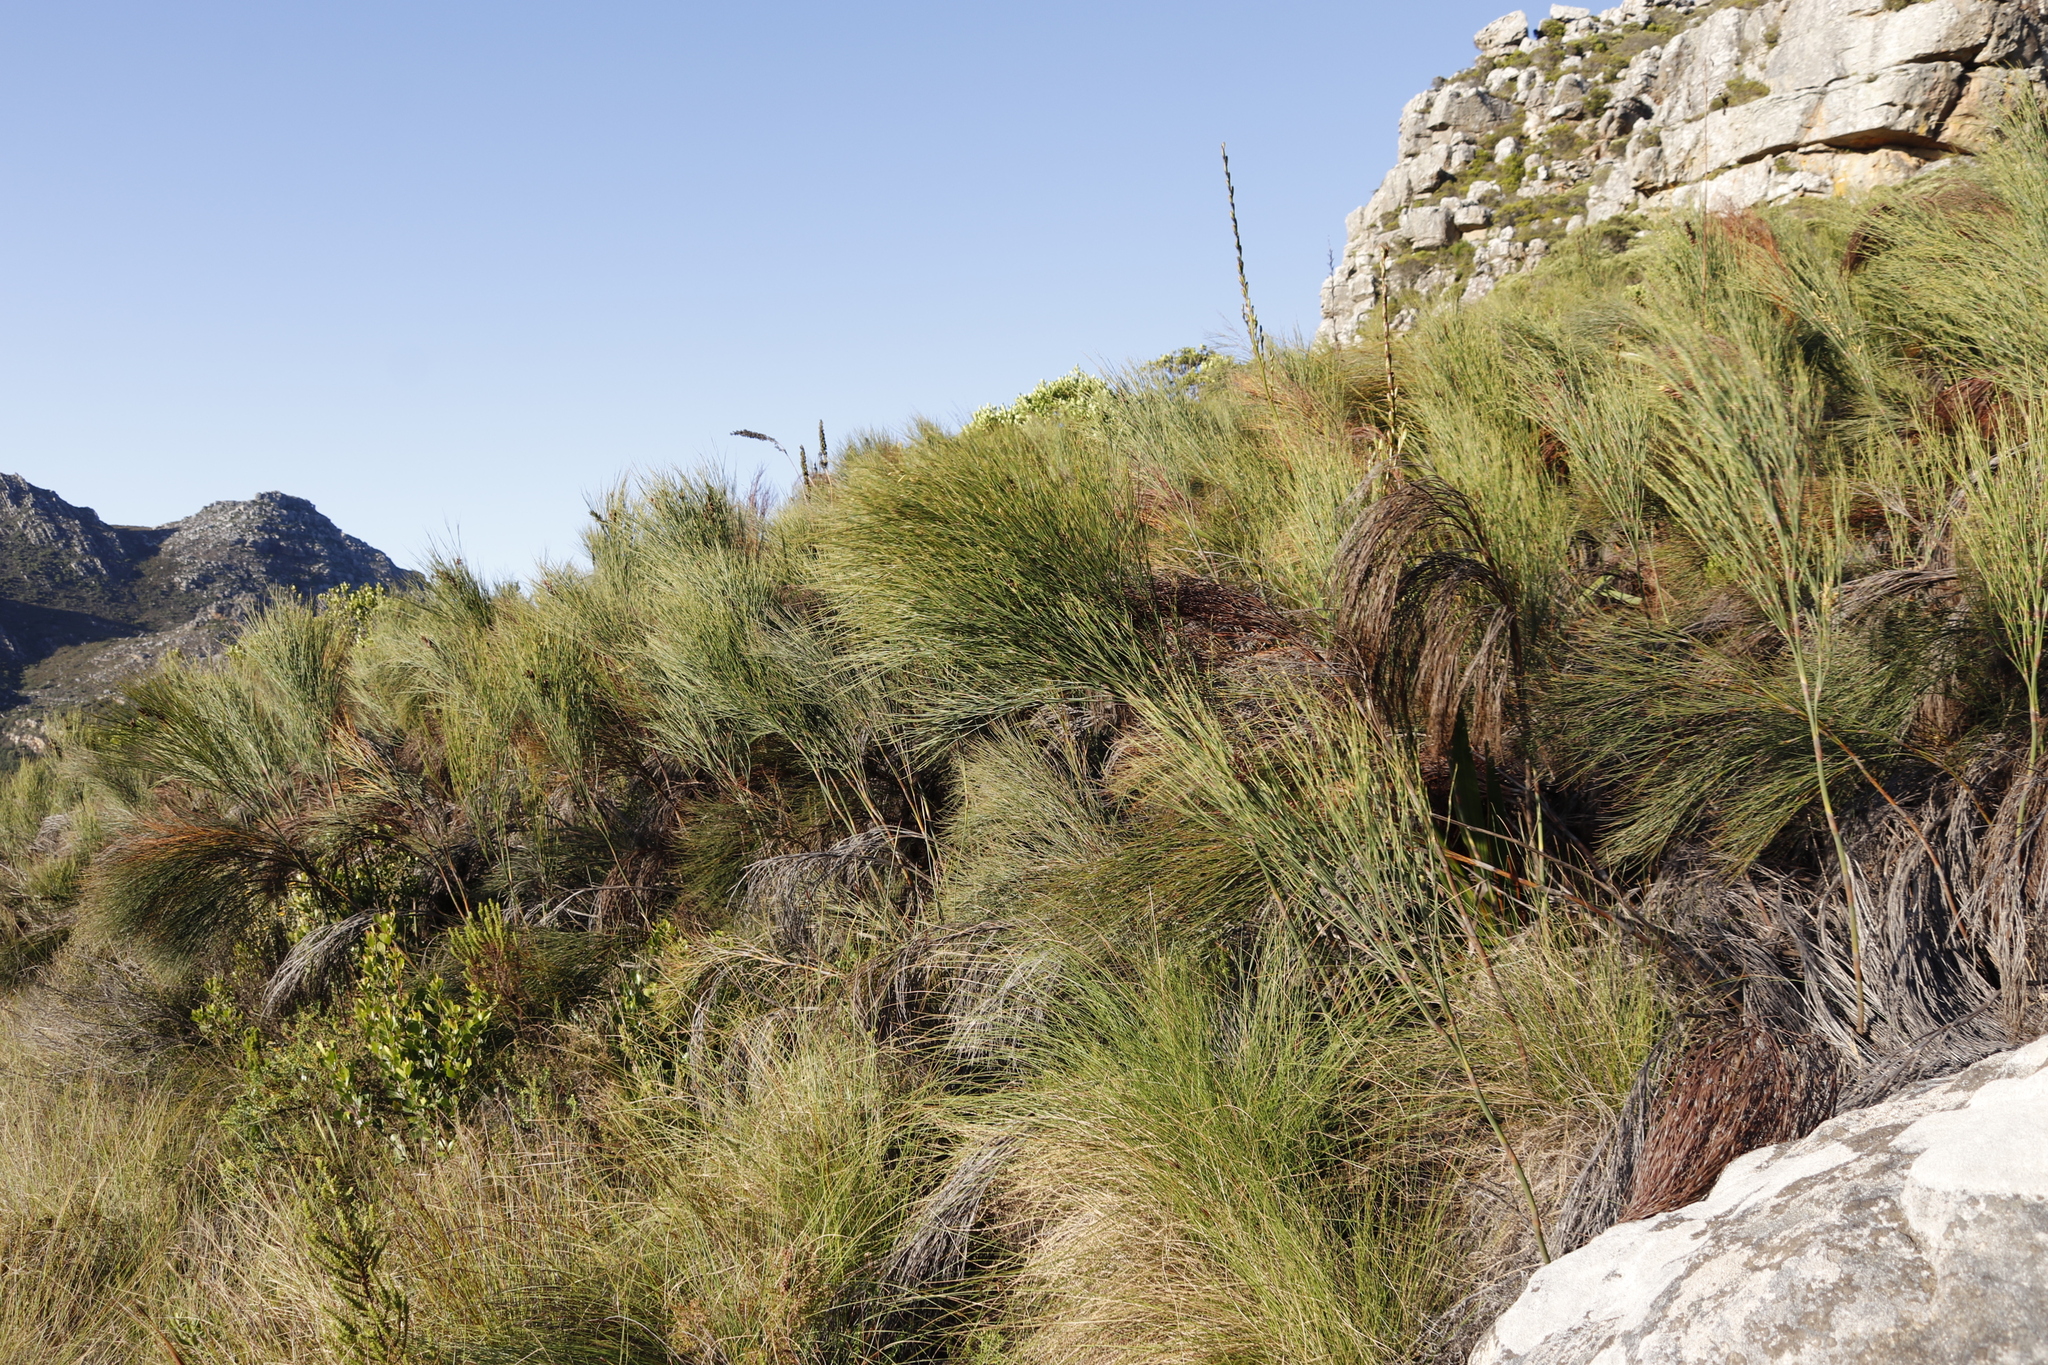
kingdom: Plantae
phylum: Tracheophyta
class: Liliopsida
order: Poales
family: Restionaceae
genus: Cannomois
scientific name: Cannomois virgata
